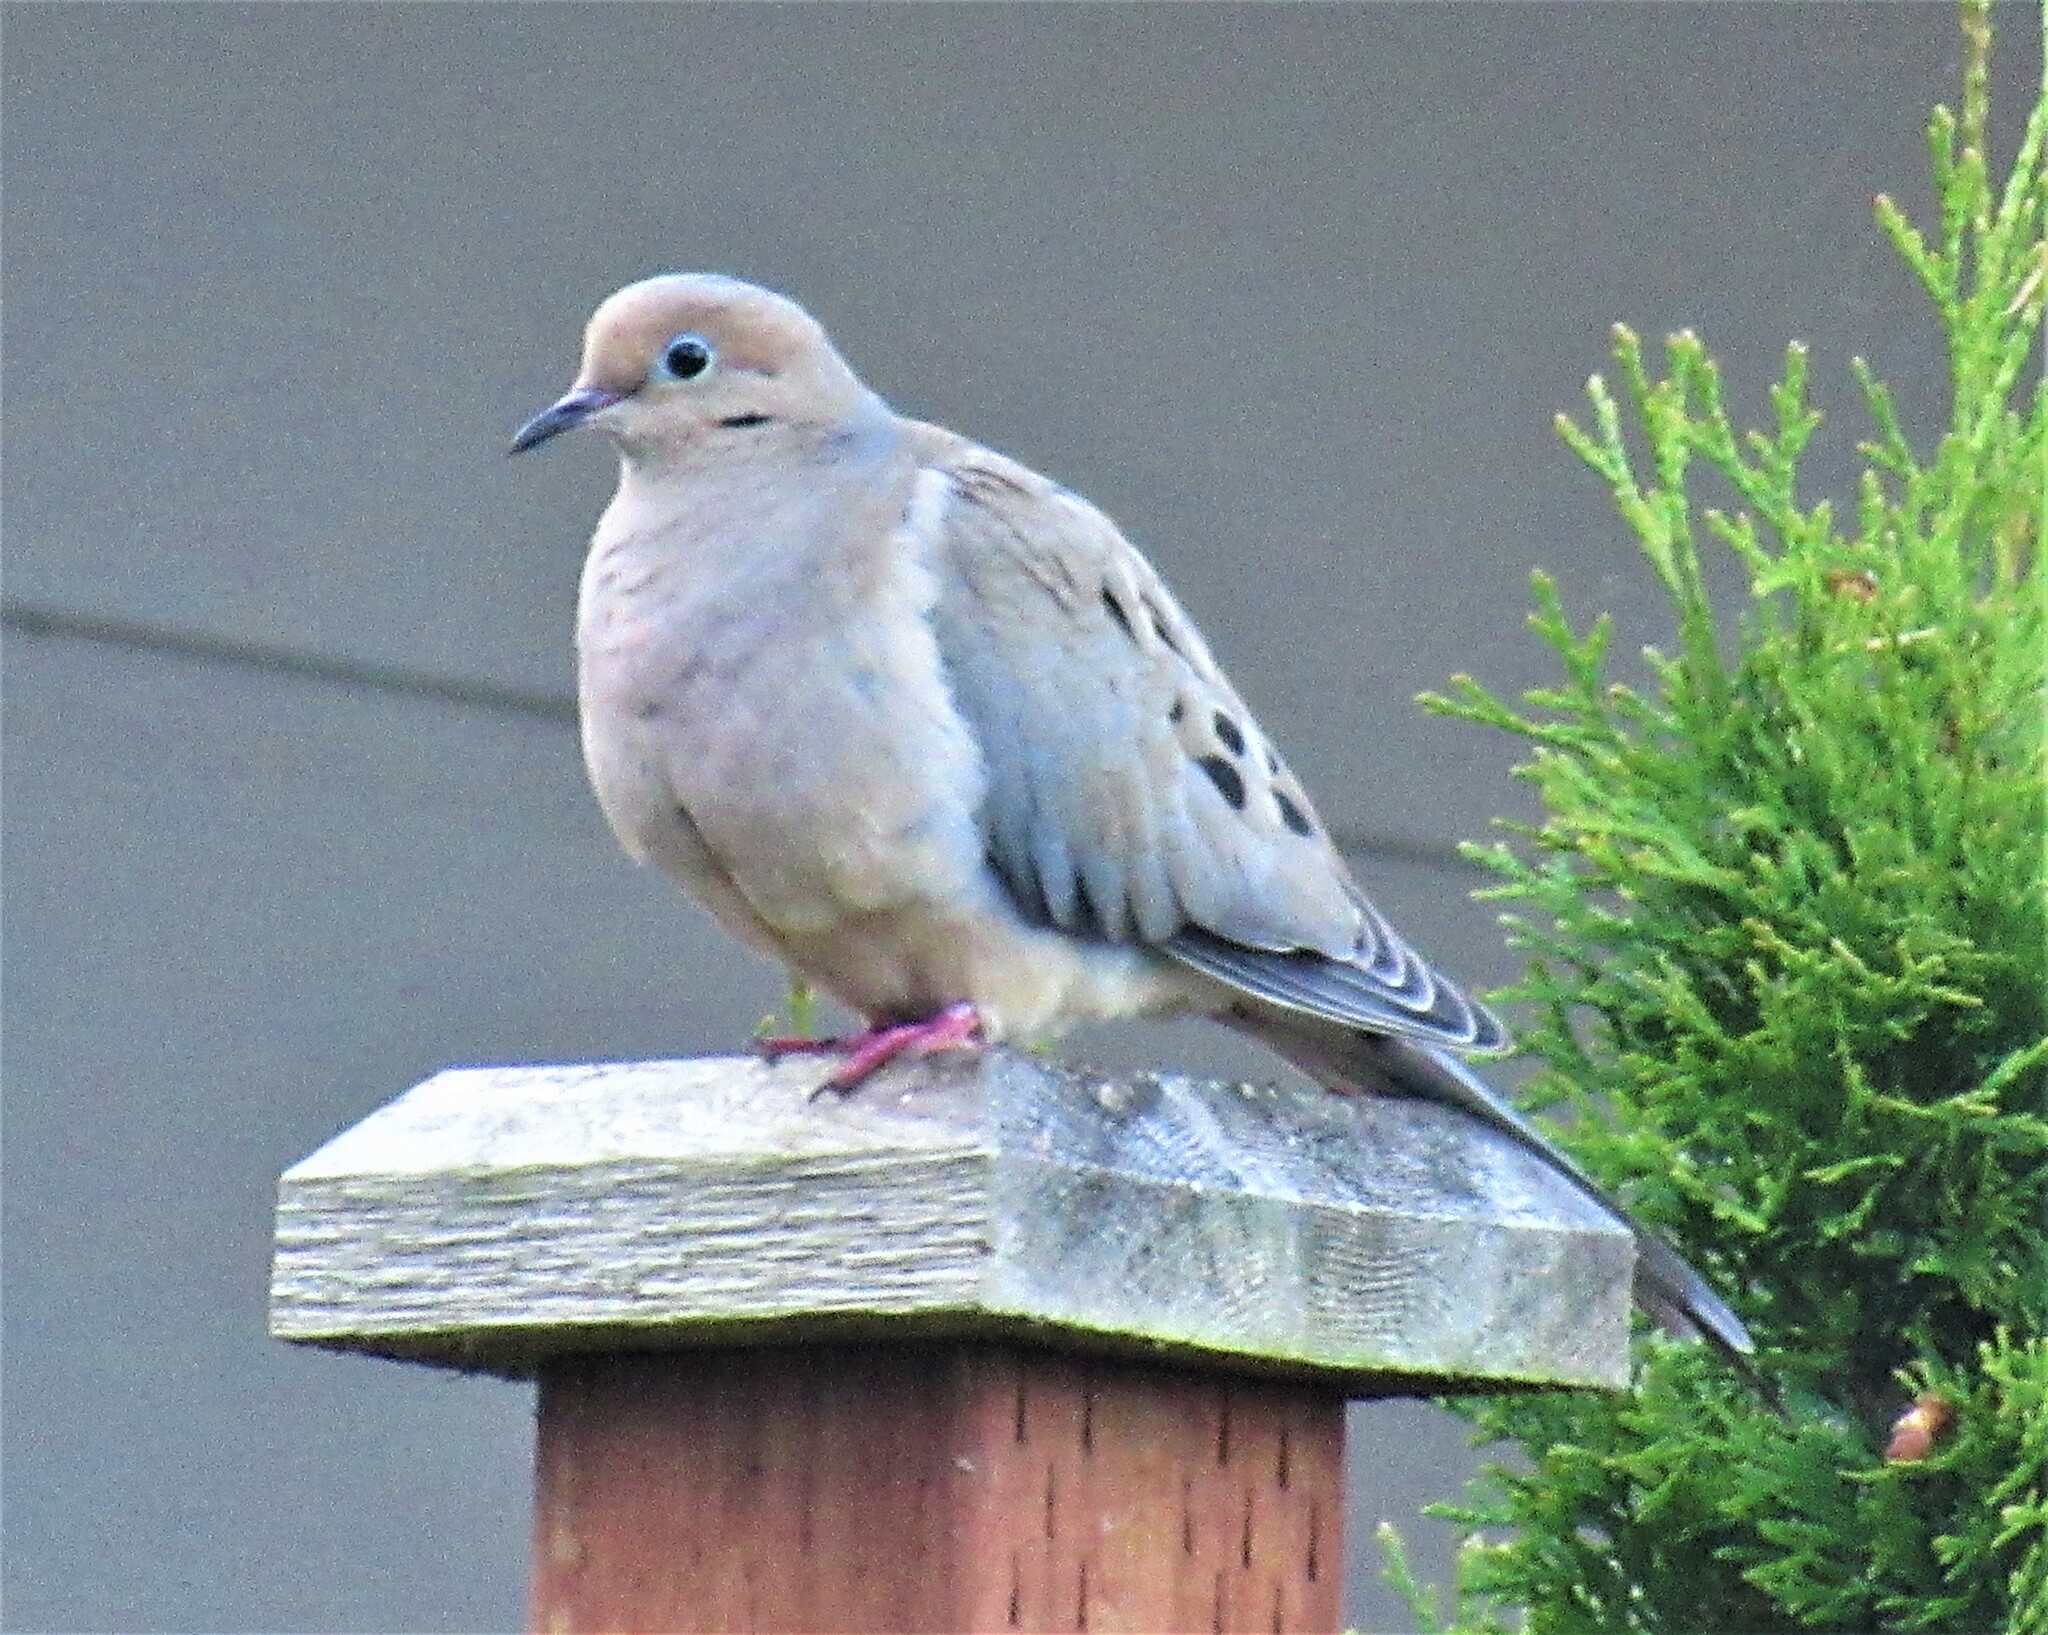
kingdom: Animalia
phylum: Chordata
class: Aves
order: Columbiformes
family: Columbidae
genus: Zenaida
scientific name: Zenaida macroura
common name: Mourning dove
